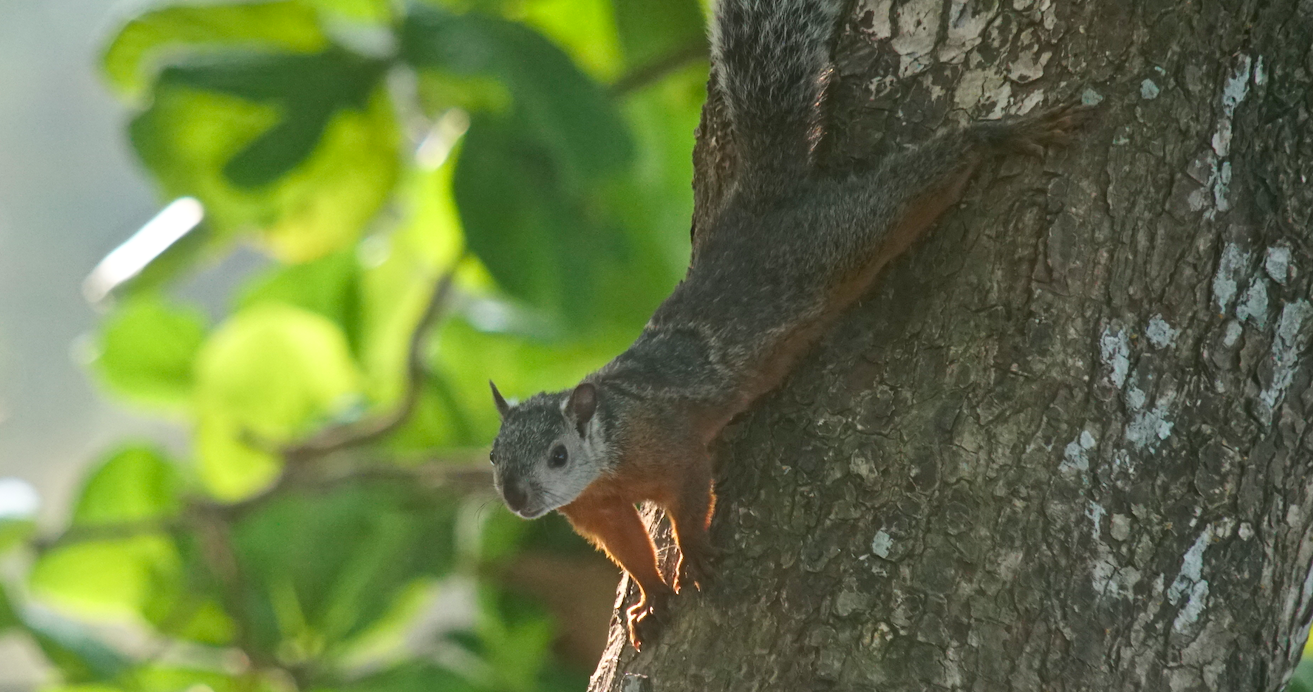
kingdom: Animalia
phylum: Chordata
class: Mammalia
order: Rodentia
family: Sciuridae
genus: Sciurus
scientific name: Sciurus variegatoides
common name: Variegated squirrel
